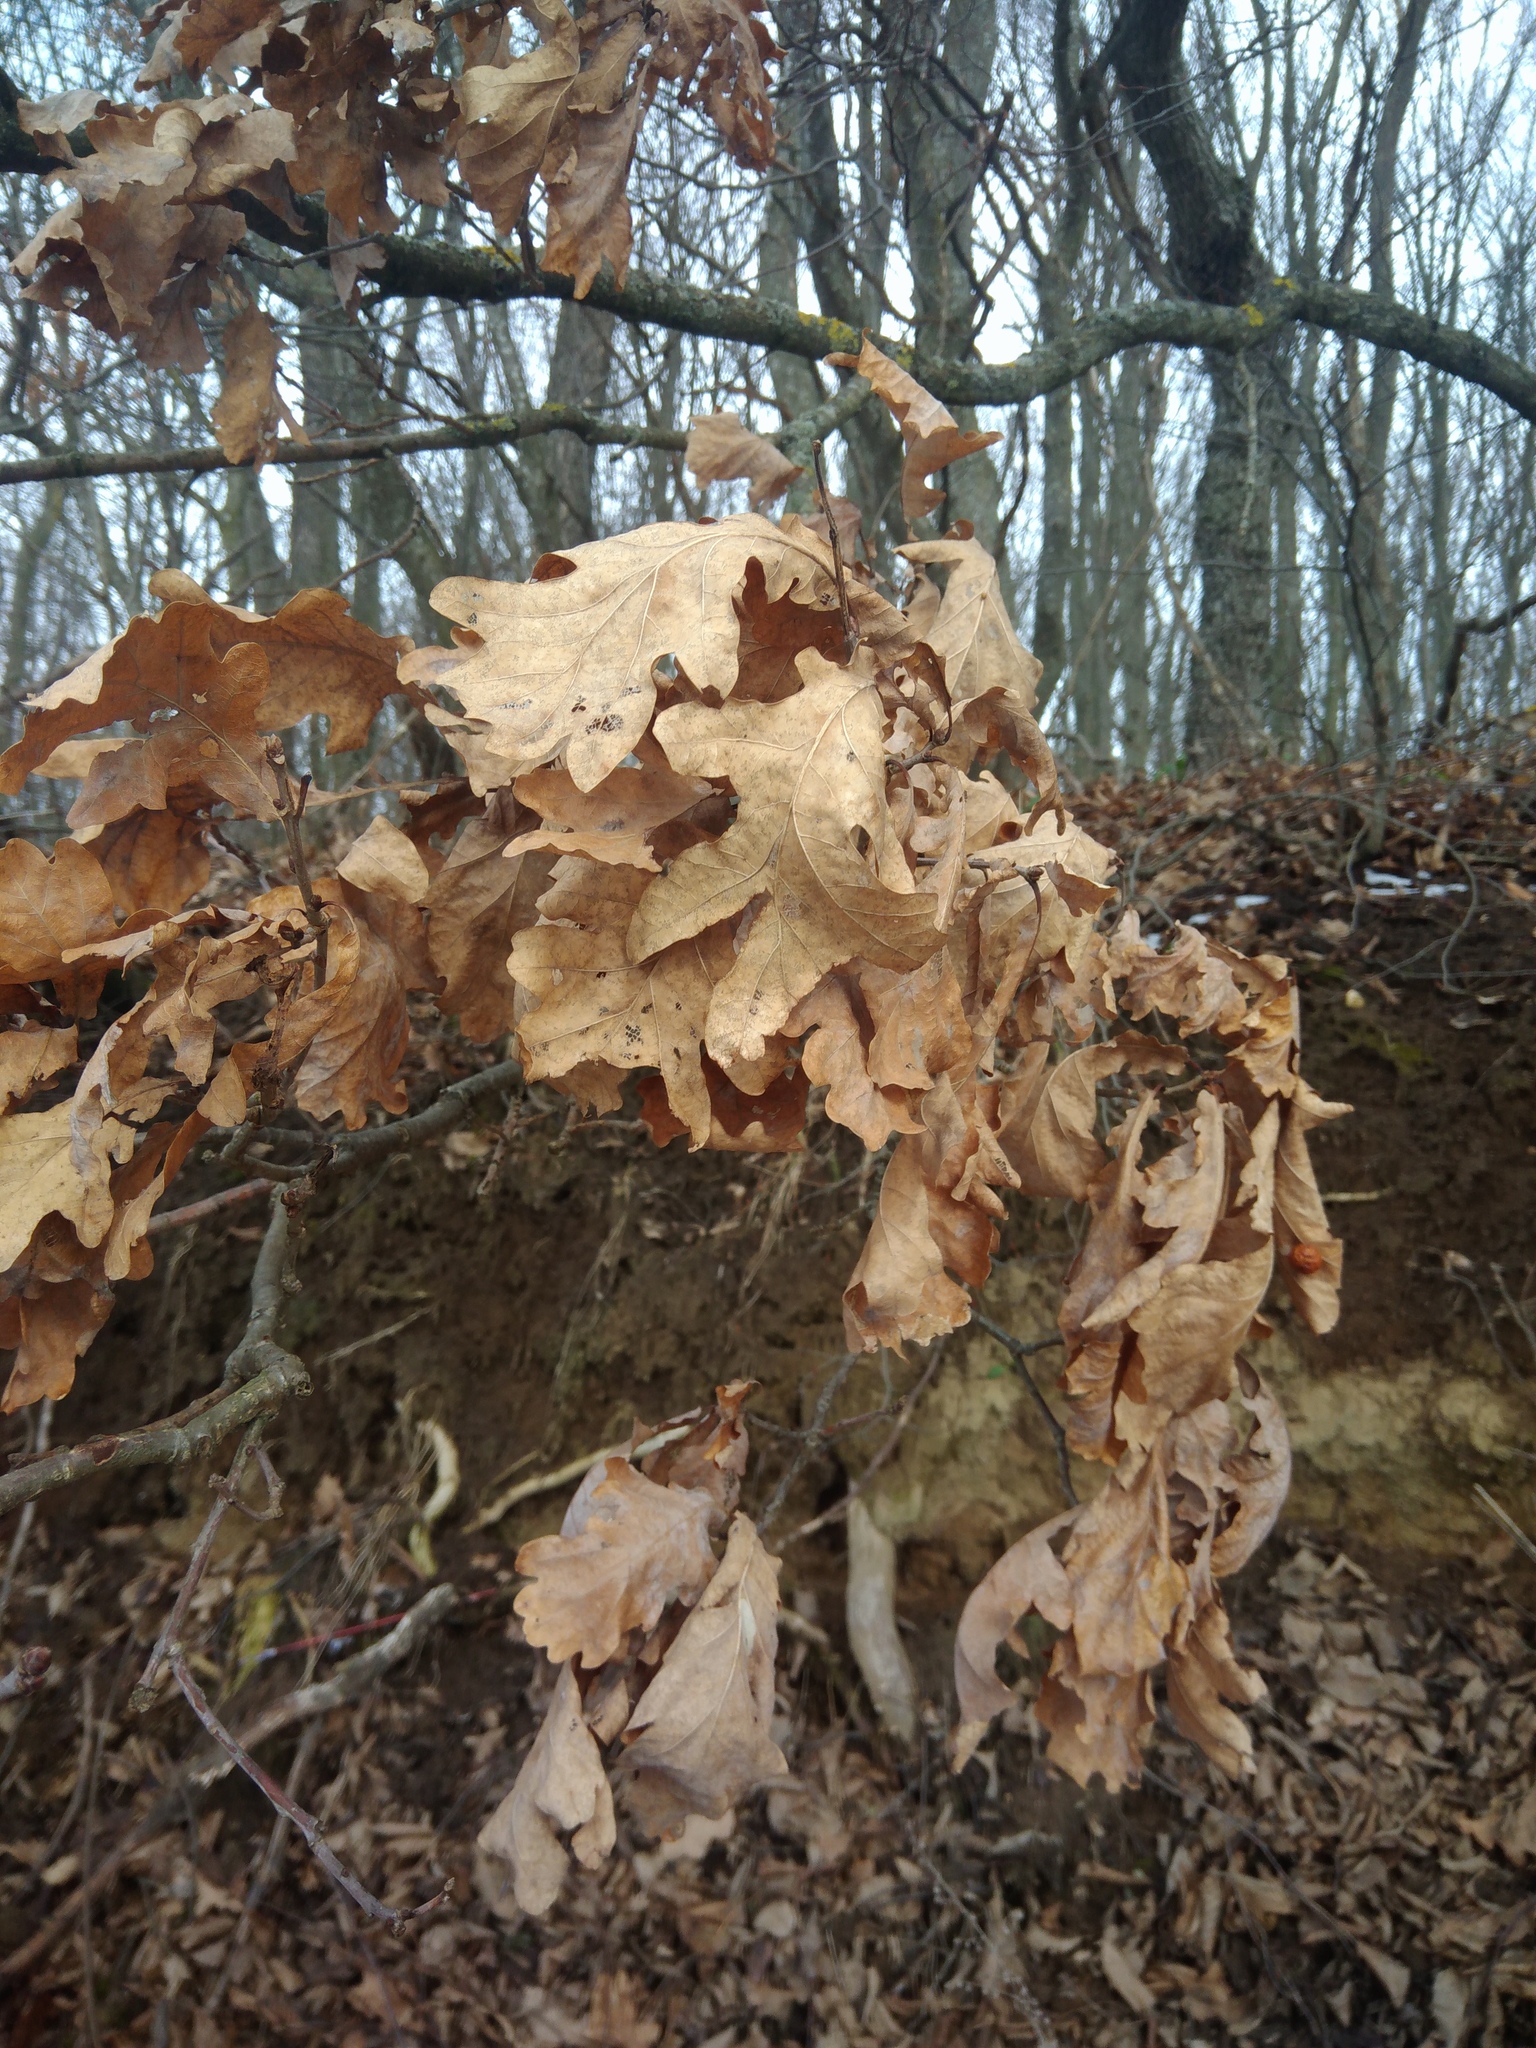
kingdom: Plantae
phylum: Tracheophyta
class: Magnoliopsida
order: Fagales
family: Fagaceae
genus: Quercus
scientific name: Quercus robur
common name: Pedunculate oak
